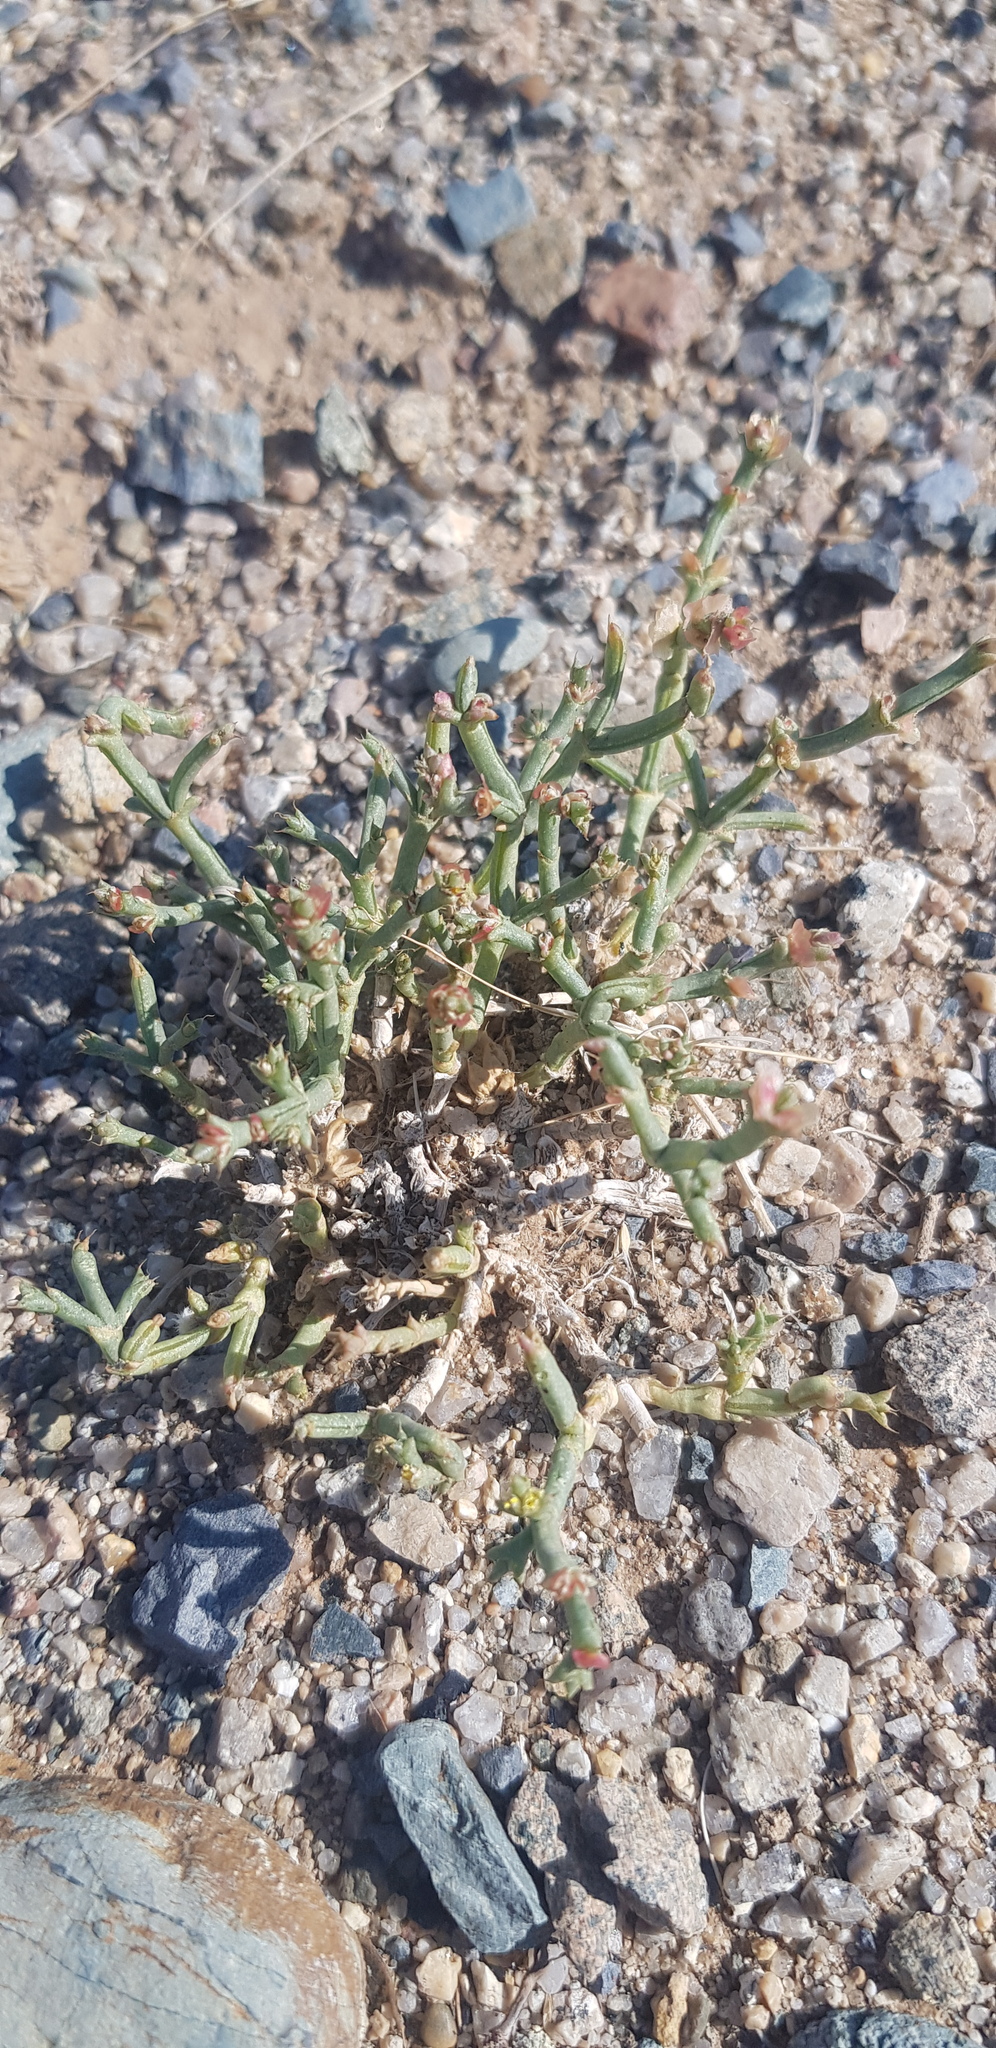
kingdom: Plantae
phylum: Tracheophyta
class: Magnoliopsida
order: Caryophyllales
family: Amaranthaceae
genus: Anabasis
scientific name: Anabasis brevifolia
